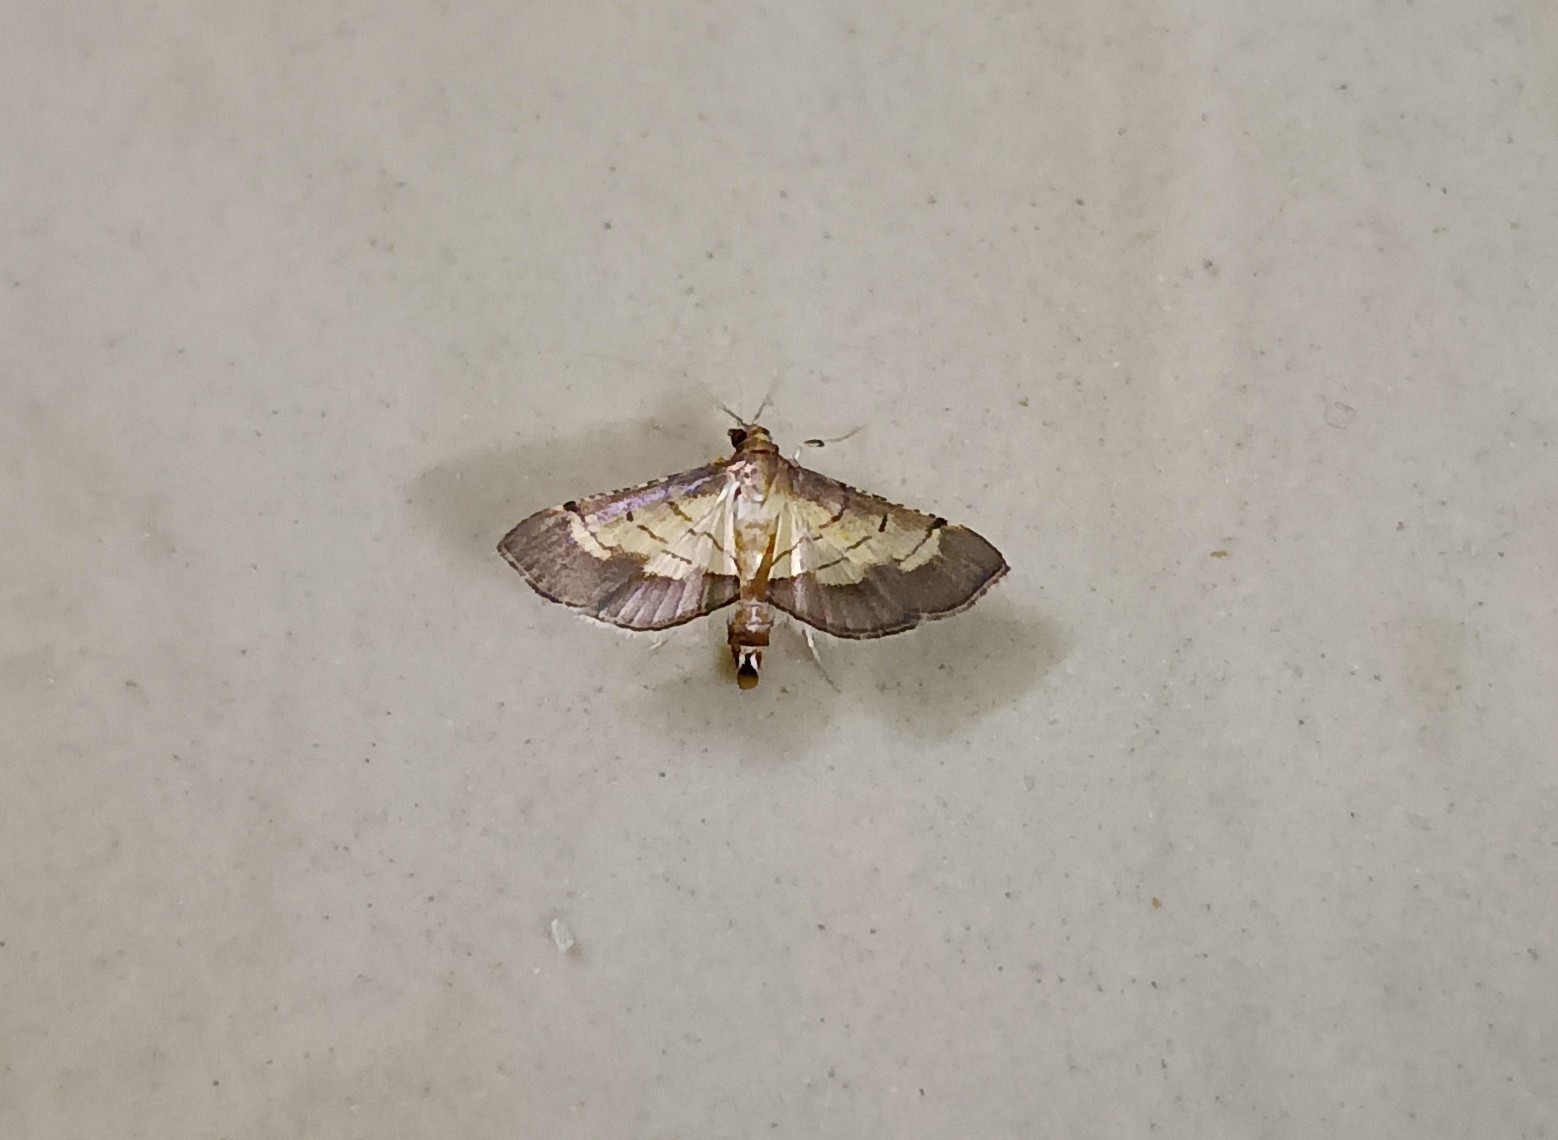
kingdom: Animalia
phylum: Arthropoda
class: Insecta
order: Lepidoptera
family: Crambidae
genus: Cnaphalocrocis
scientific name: Cnaphalocrocis trebiusalis
